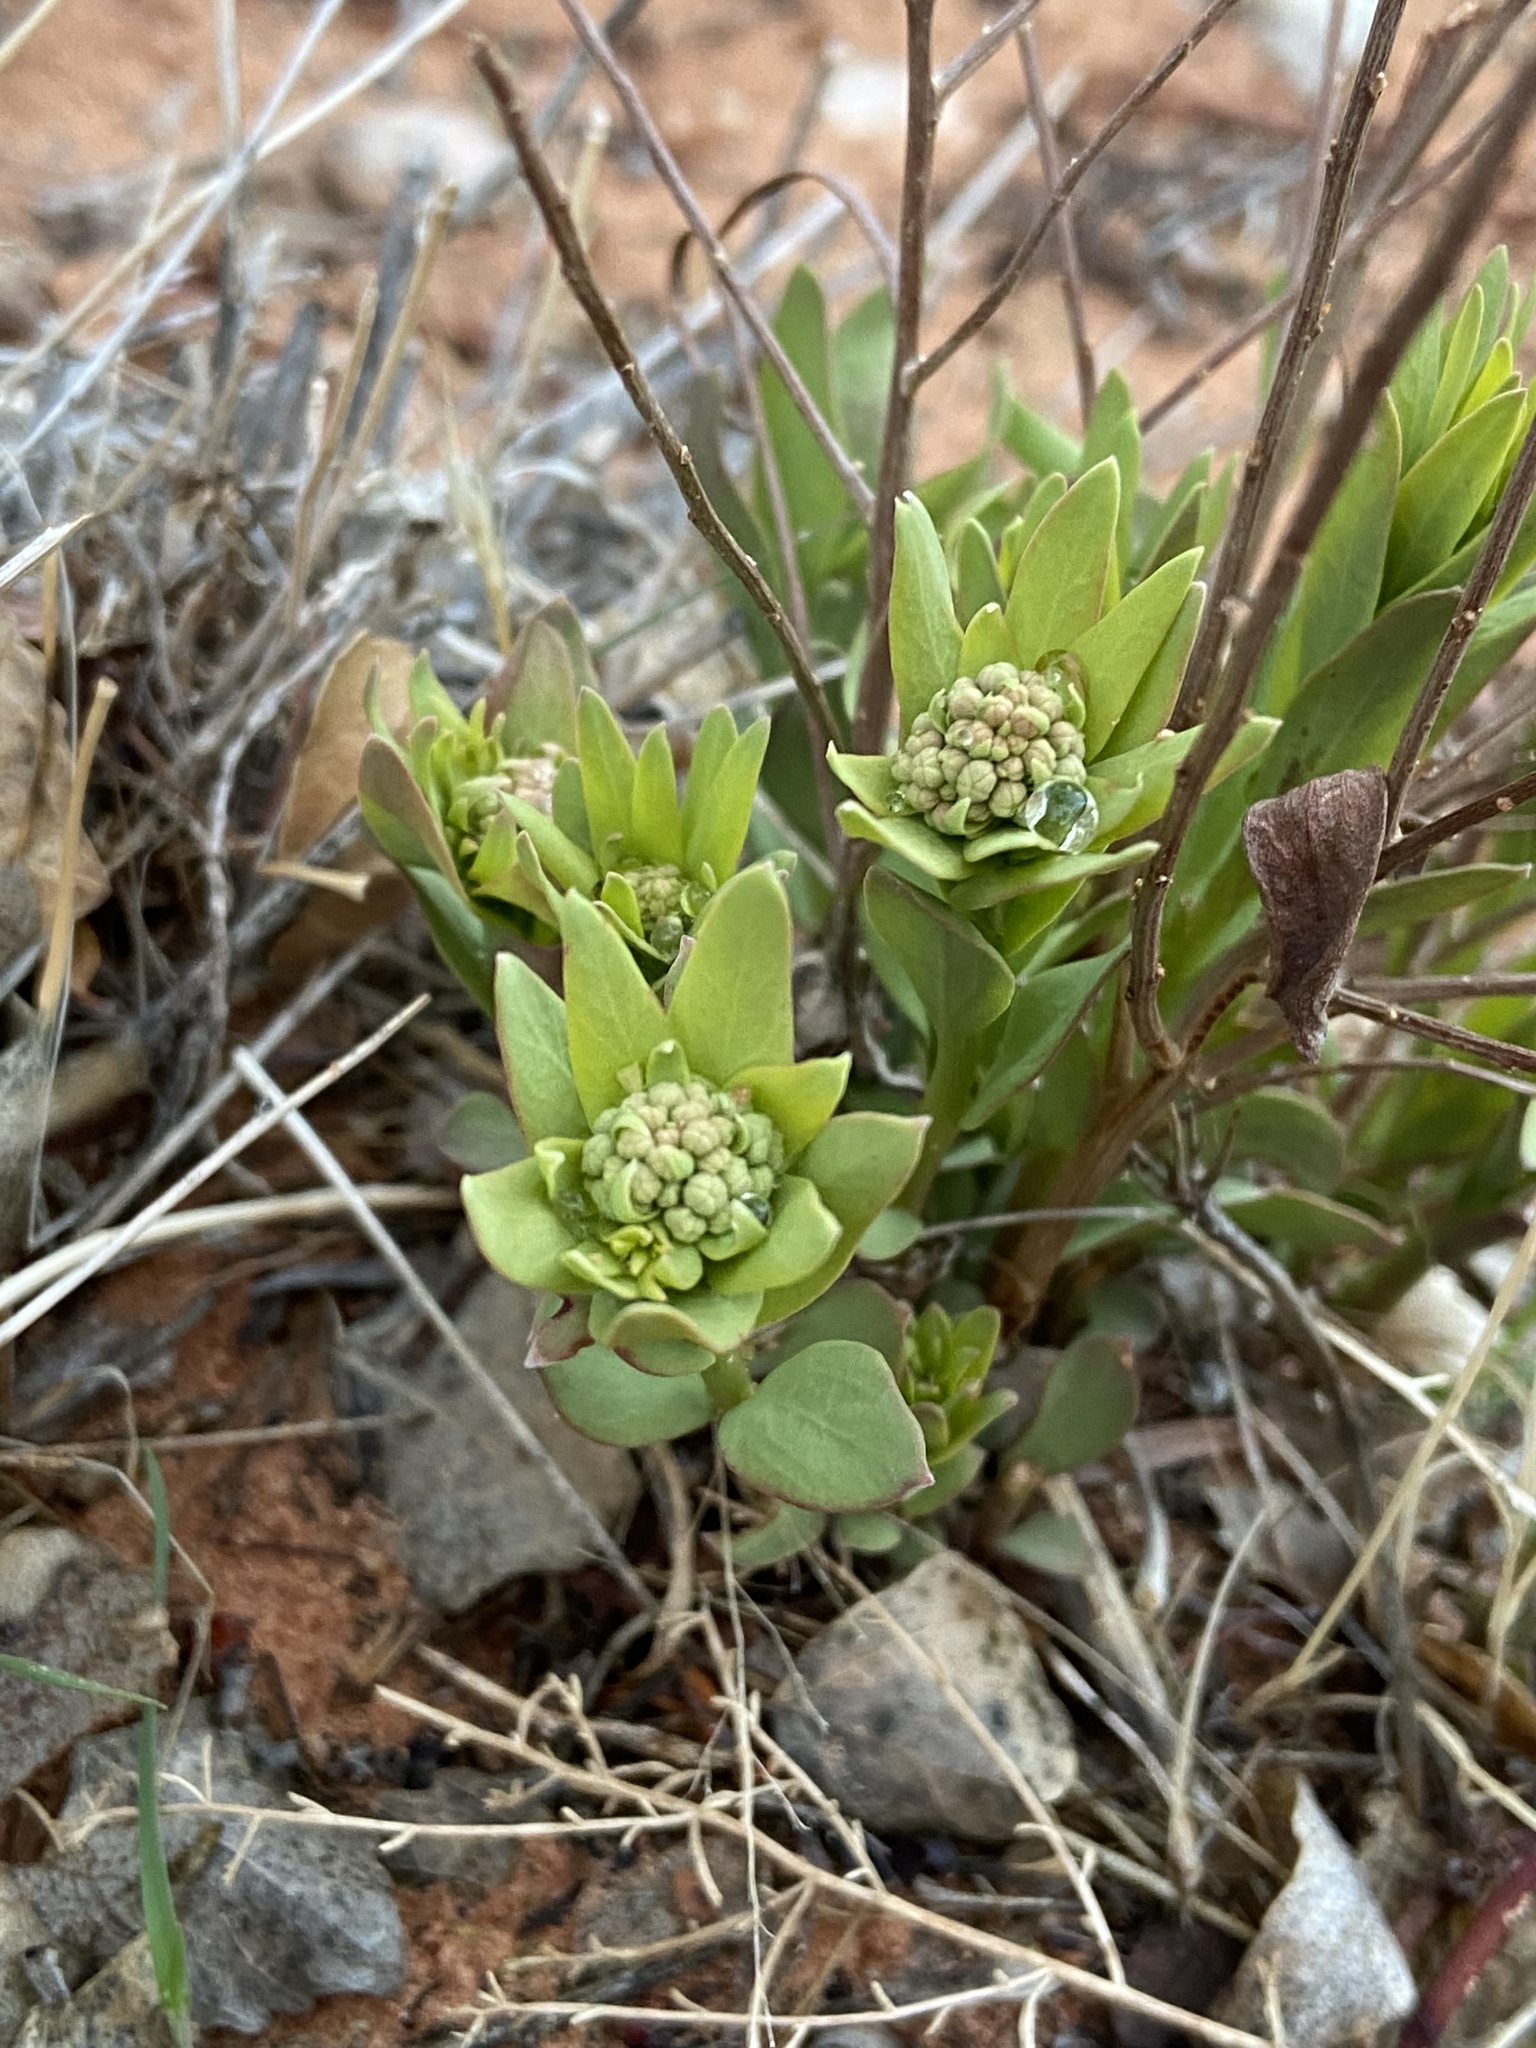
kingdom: Plantae
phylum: Tracheophyta
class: Magnoliopsida
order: Santalales
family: Comandraceae
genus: Comandra
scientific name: Comandra umbellata
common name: Bastard toadflax
